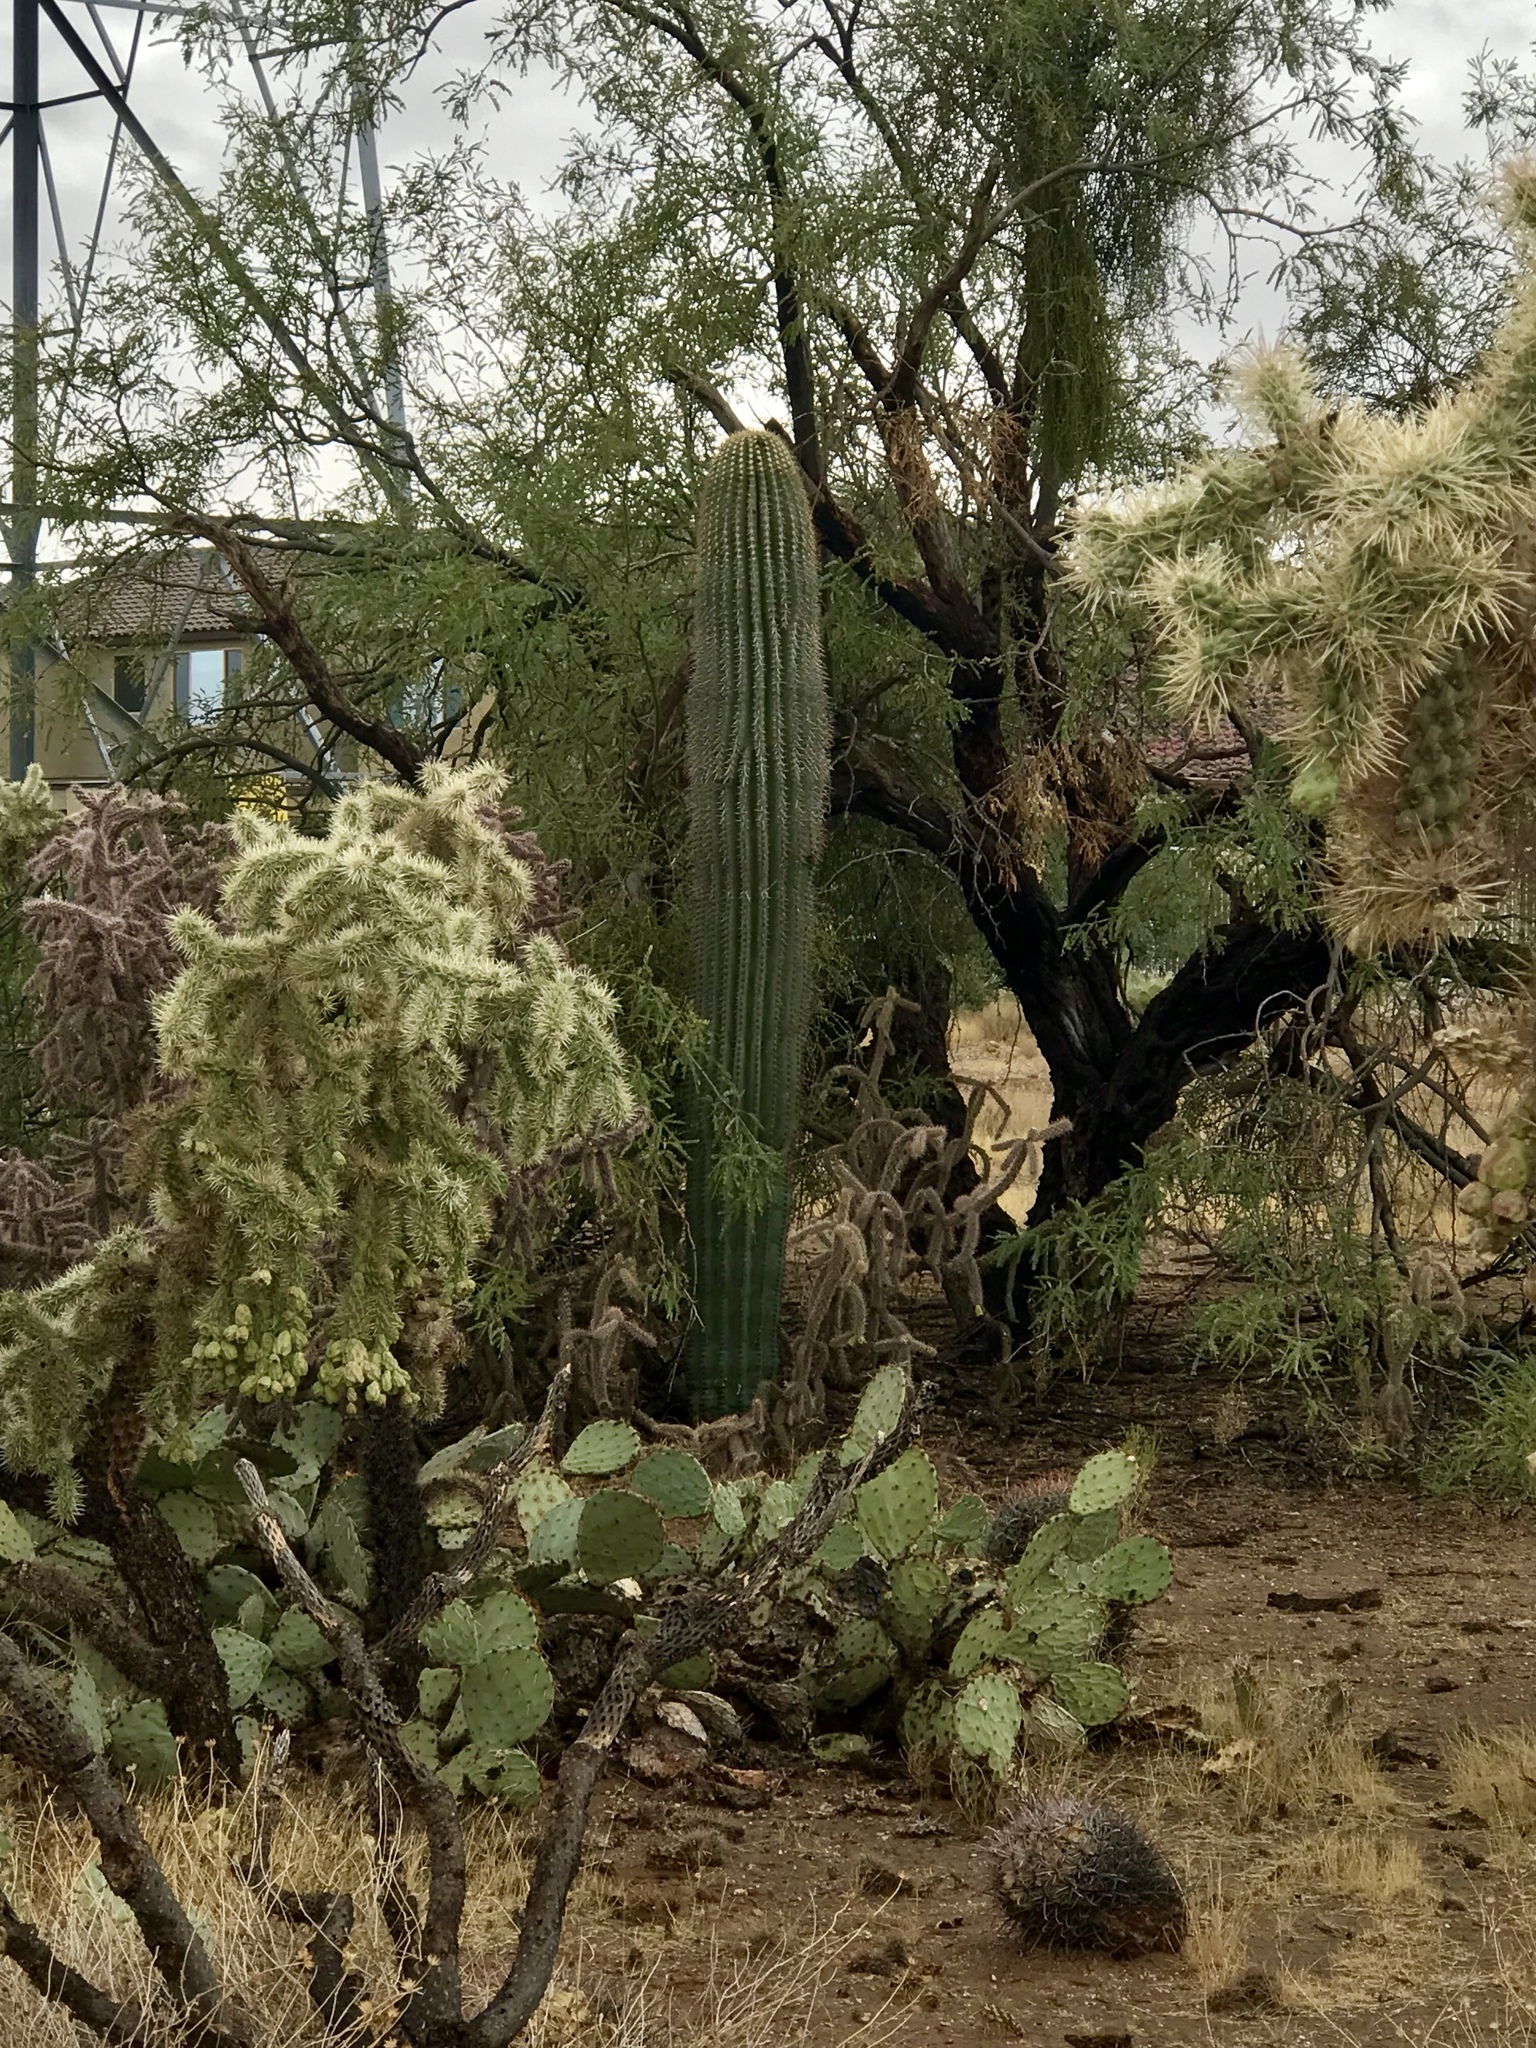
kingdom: Plantae
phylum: Tracheophyta
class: Magnoliopsida
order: Caryophyllales
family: Cactaceae
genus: Cylindropuntia
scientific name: Cylindropuntia fulgida
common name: Jumping cholla
